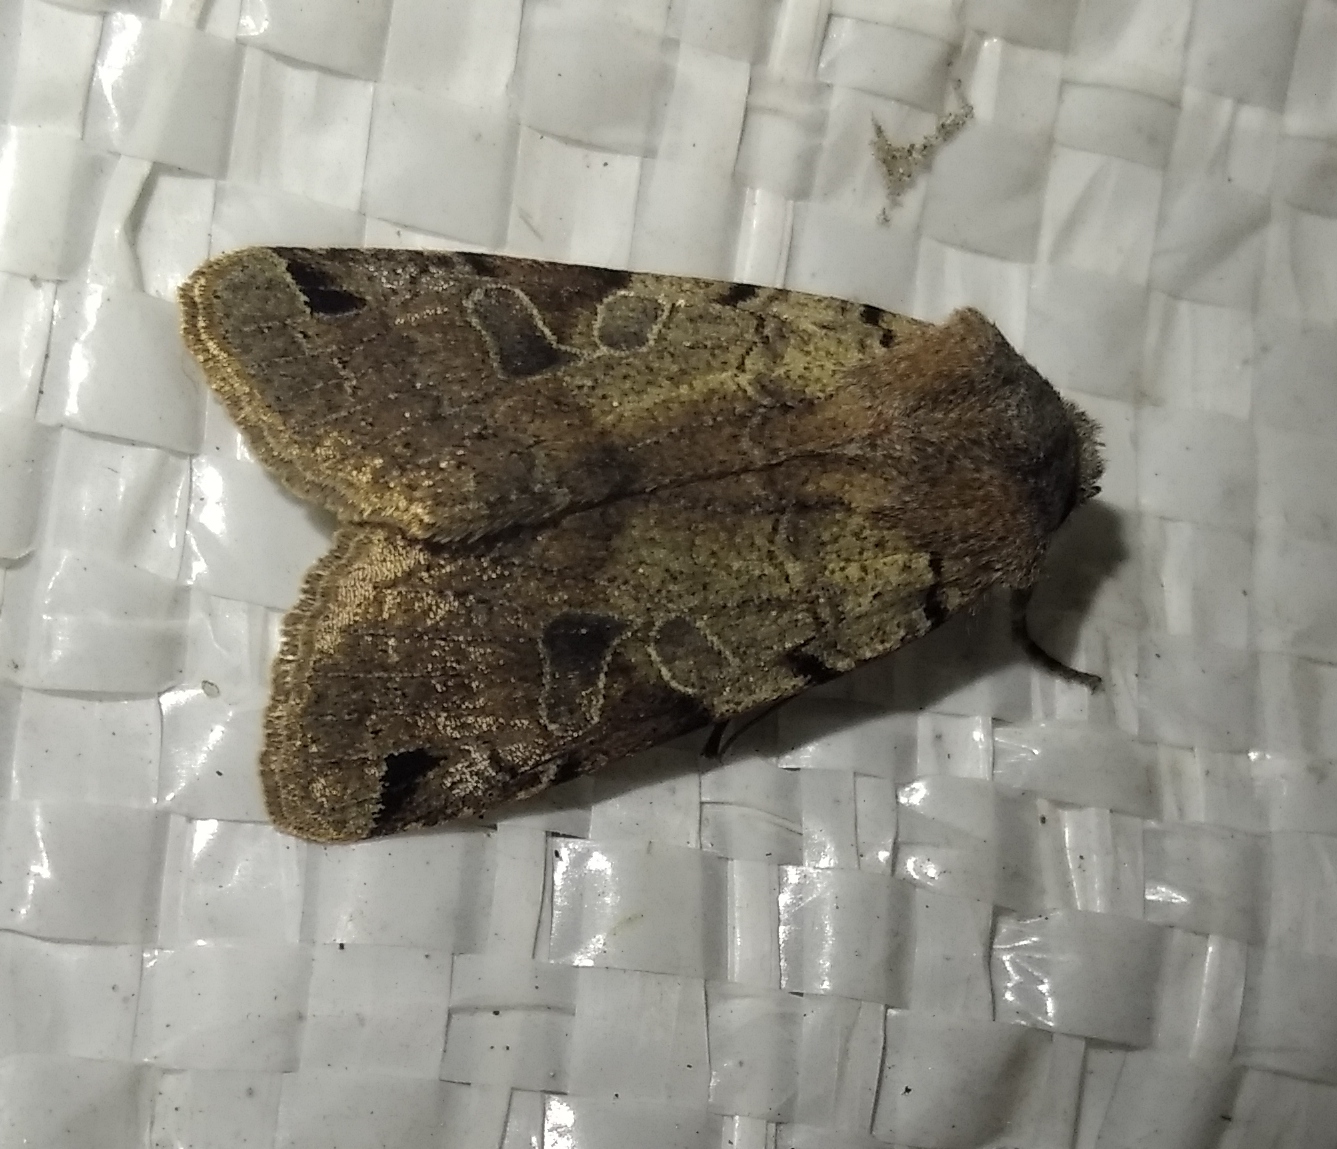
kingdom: Animalia
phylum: Arthropoda
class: Insecta
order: Lepidoptera
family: Noctuidae
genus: Agrochola
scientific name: Agrochola litura
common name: Brown-spot pinion
